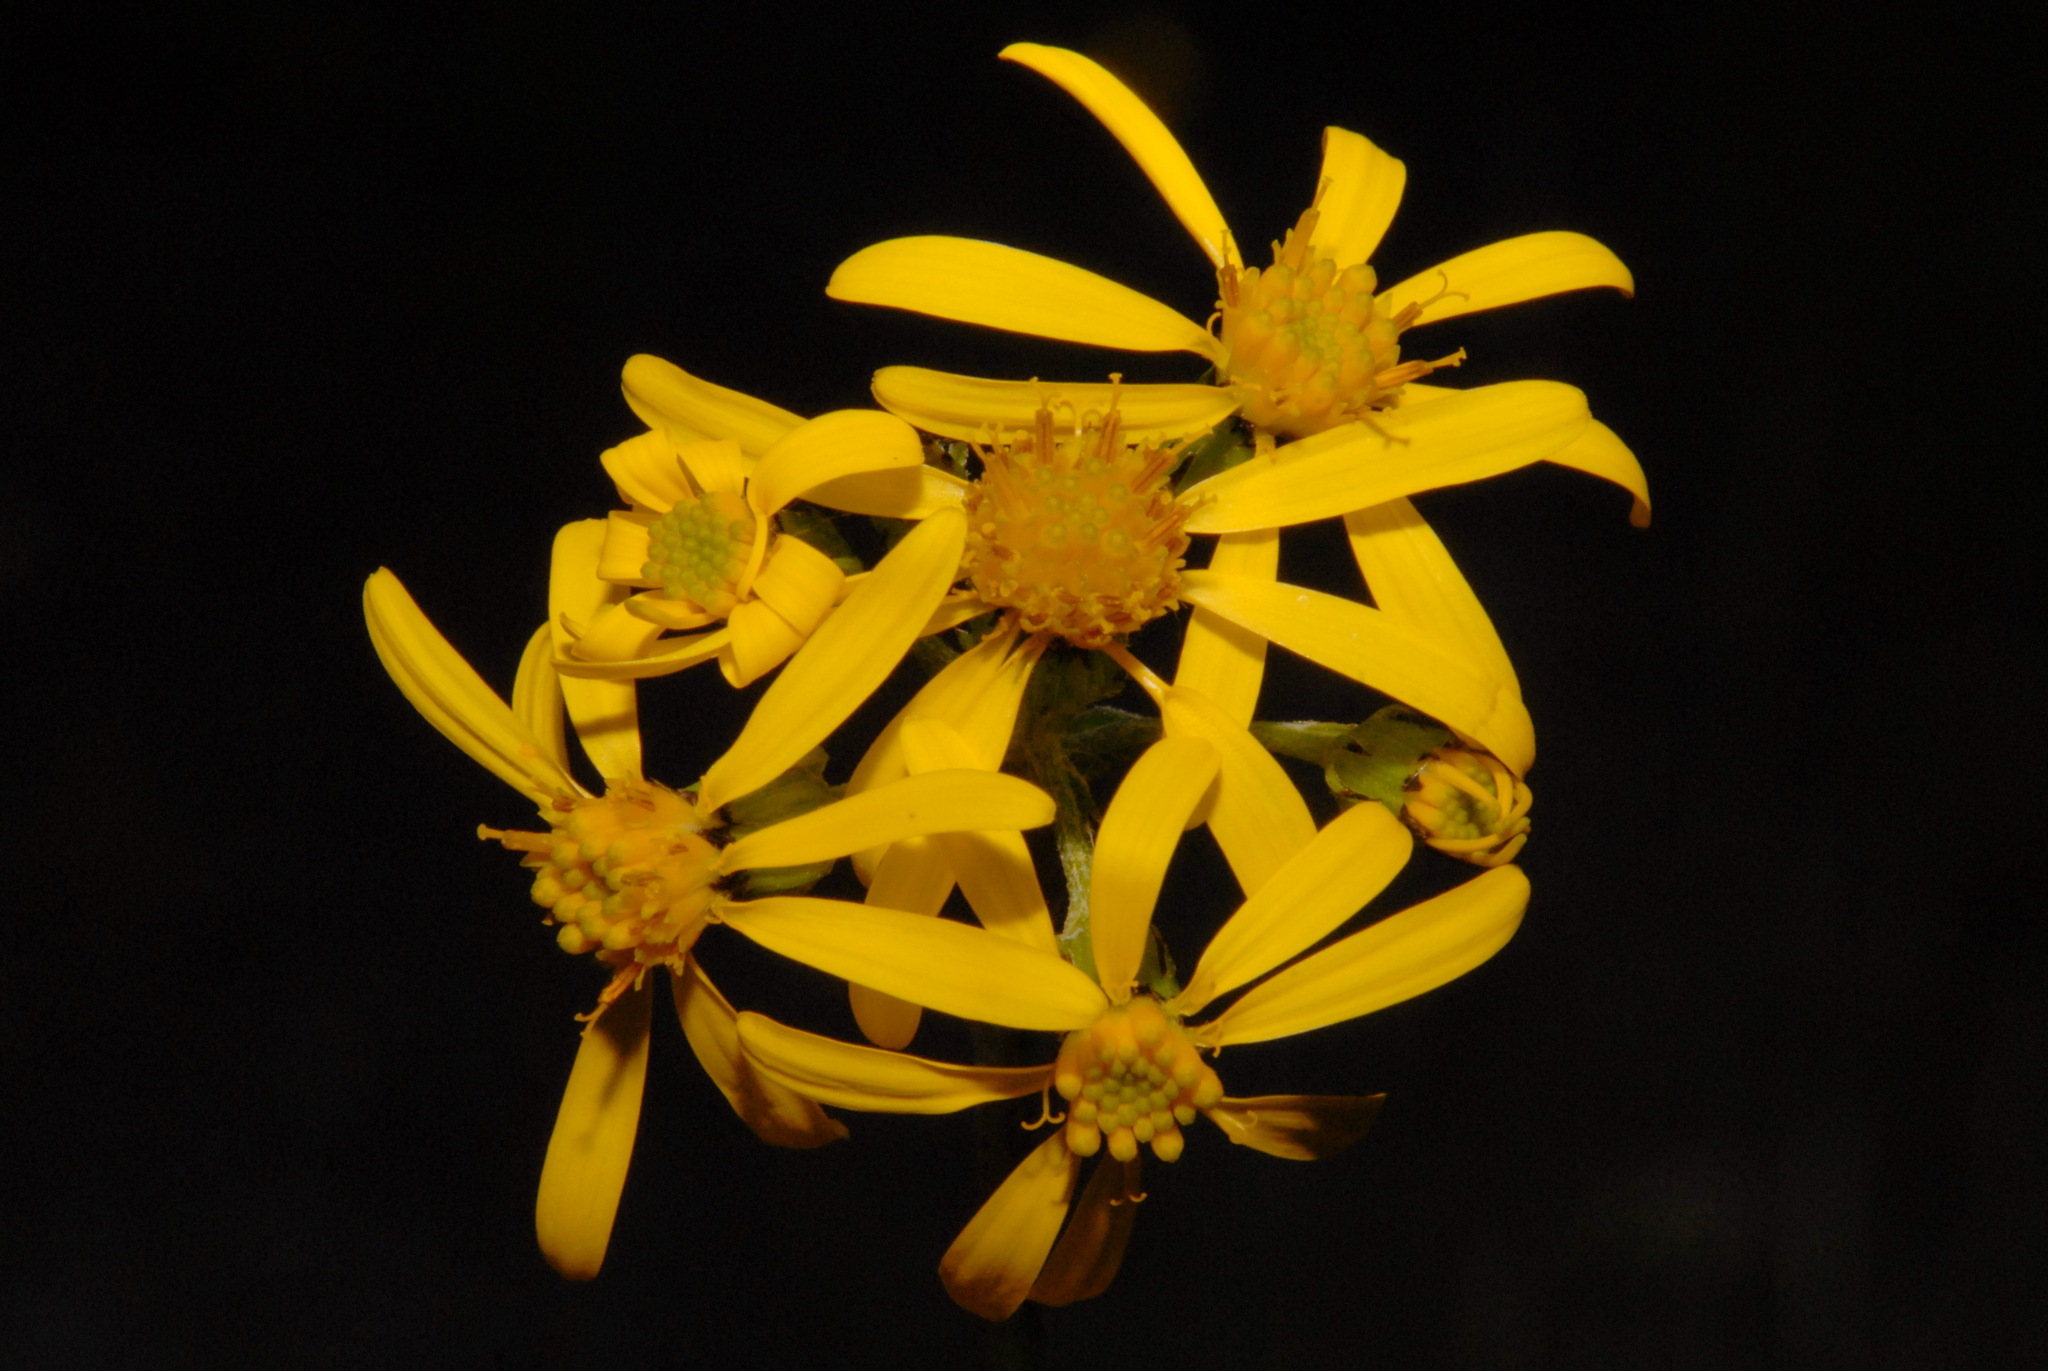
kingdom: Plantae
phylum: Tracheophyta
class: Magnoliopsida
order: Asterales
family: Asteraceae
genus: Senecio
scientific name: Senecio lugens
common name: Black-tip groundsel
